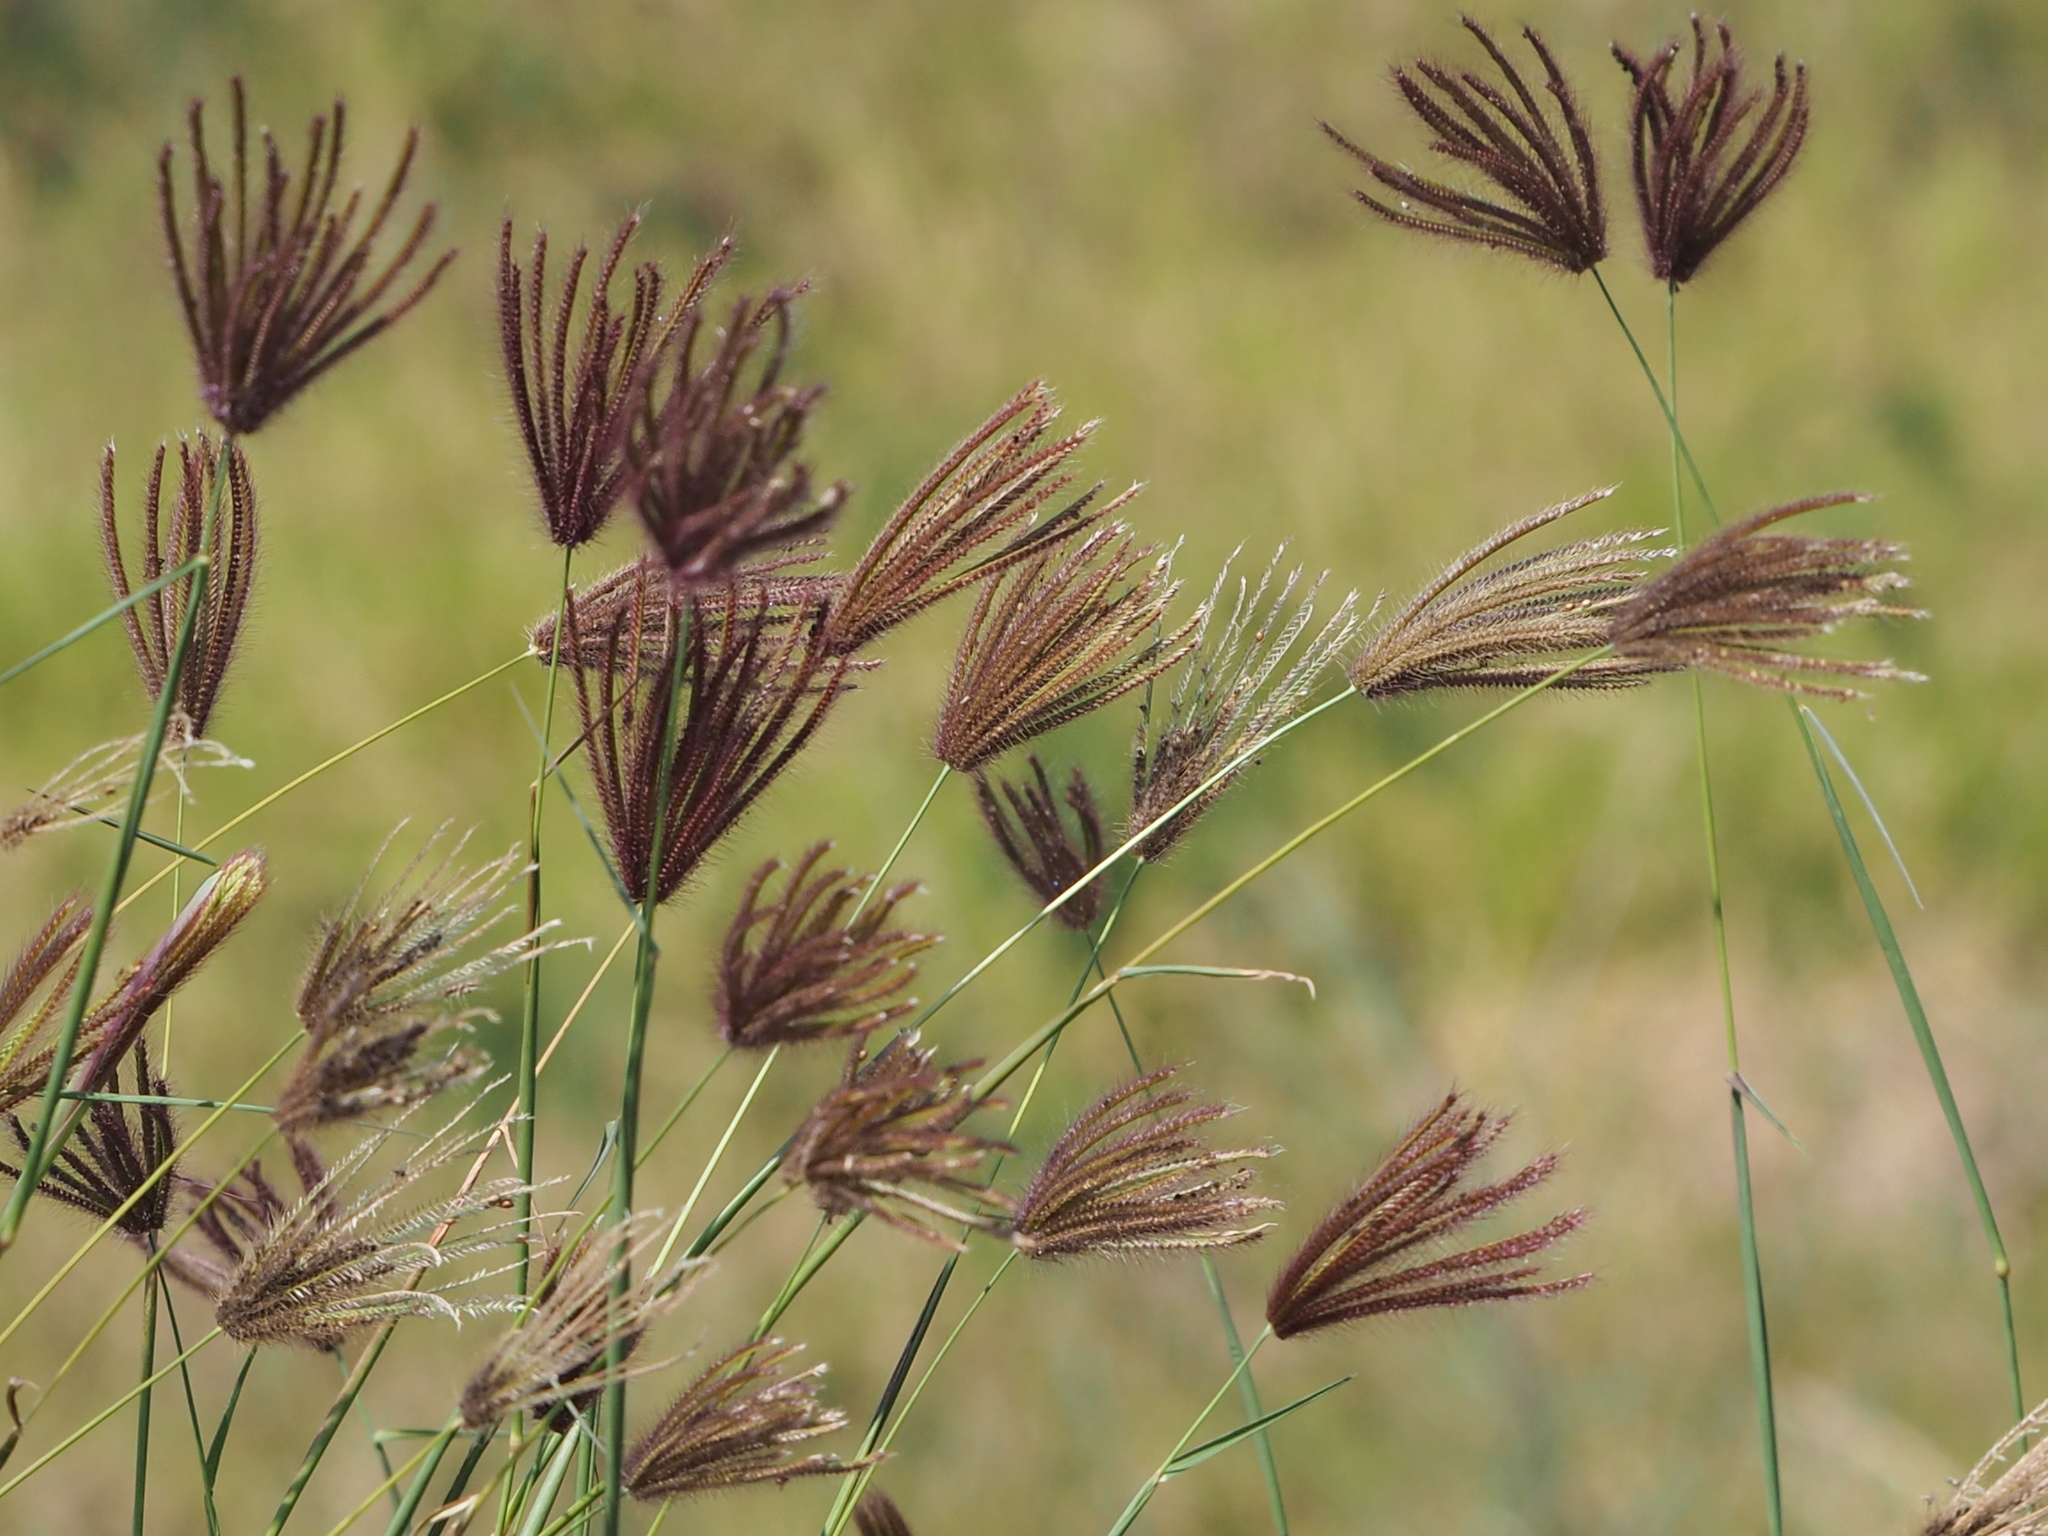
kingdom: Plantae
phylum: Tracheophyta
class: Liliopsida
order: Poales
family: Poaceae
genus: Chloris
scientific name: Chloris barbata
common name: Swollen fingergrass
